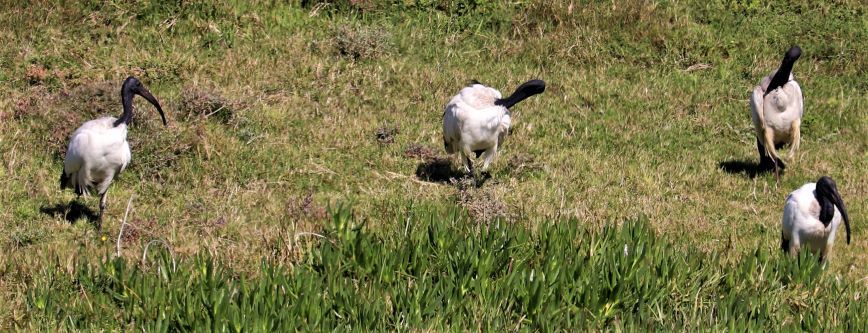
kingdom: Animalia
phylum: Chordata
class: Aves
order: Pelecaniformes
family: Threskiornithidae
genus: Threskiornis
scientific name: Threskiornis aethiopicus
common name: Sacred ibis
